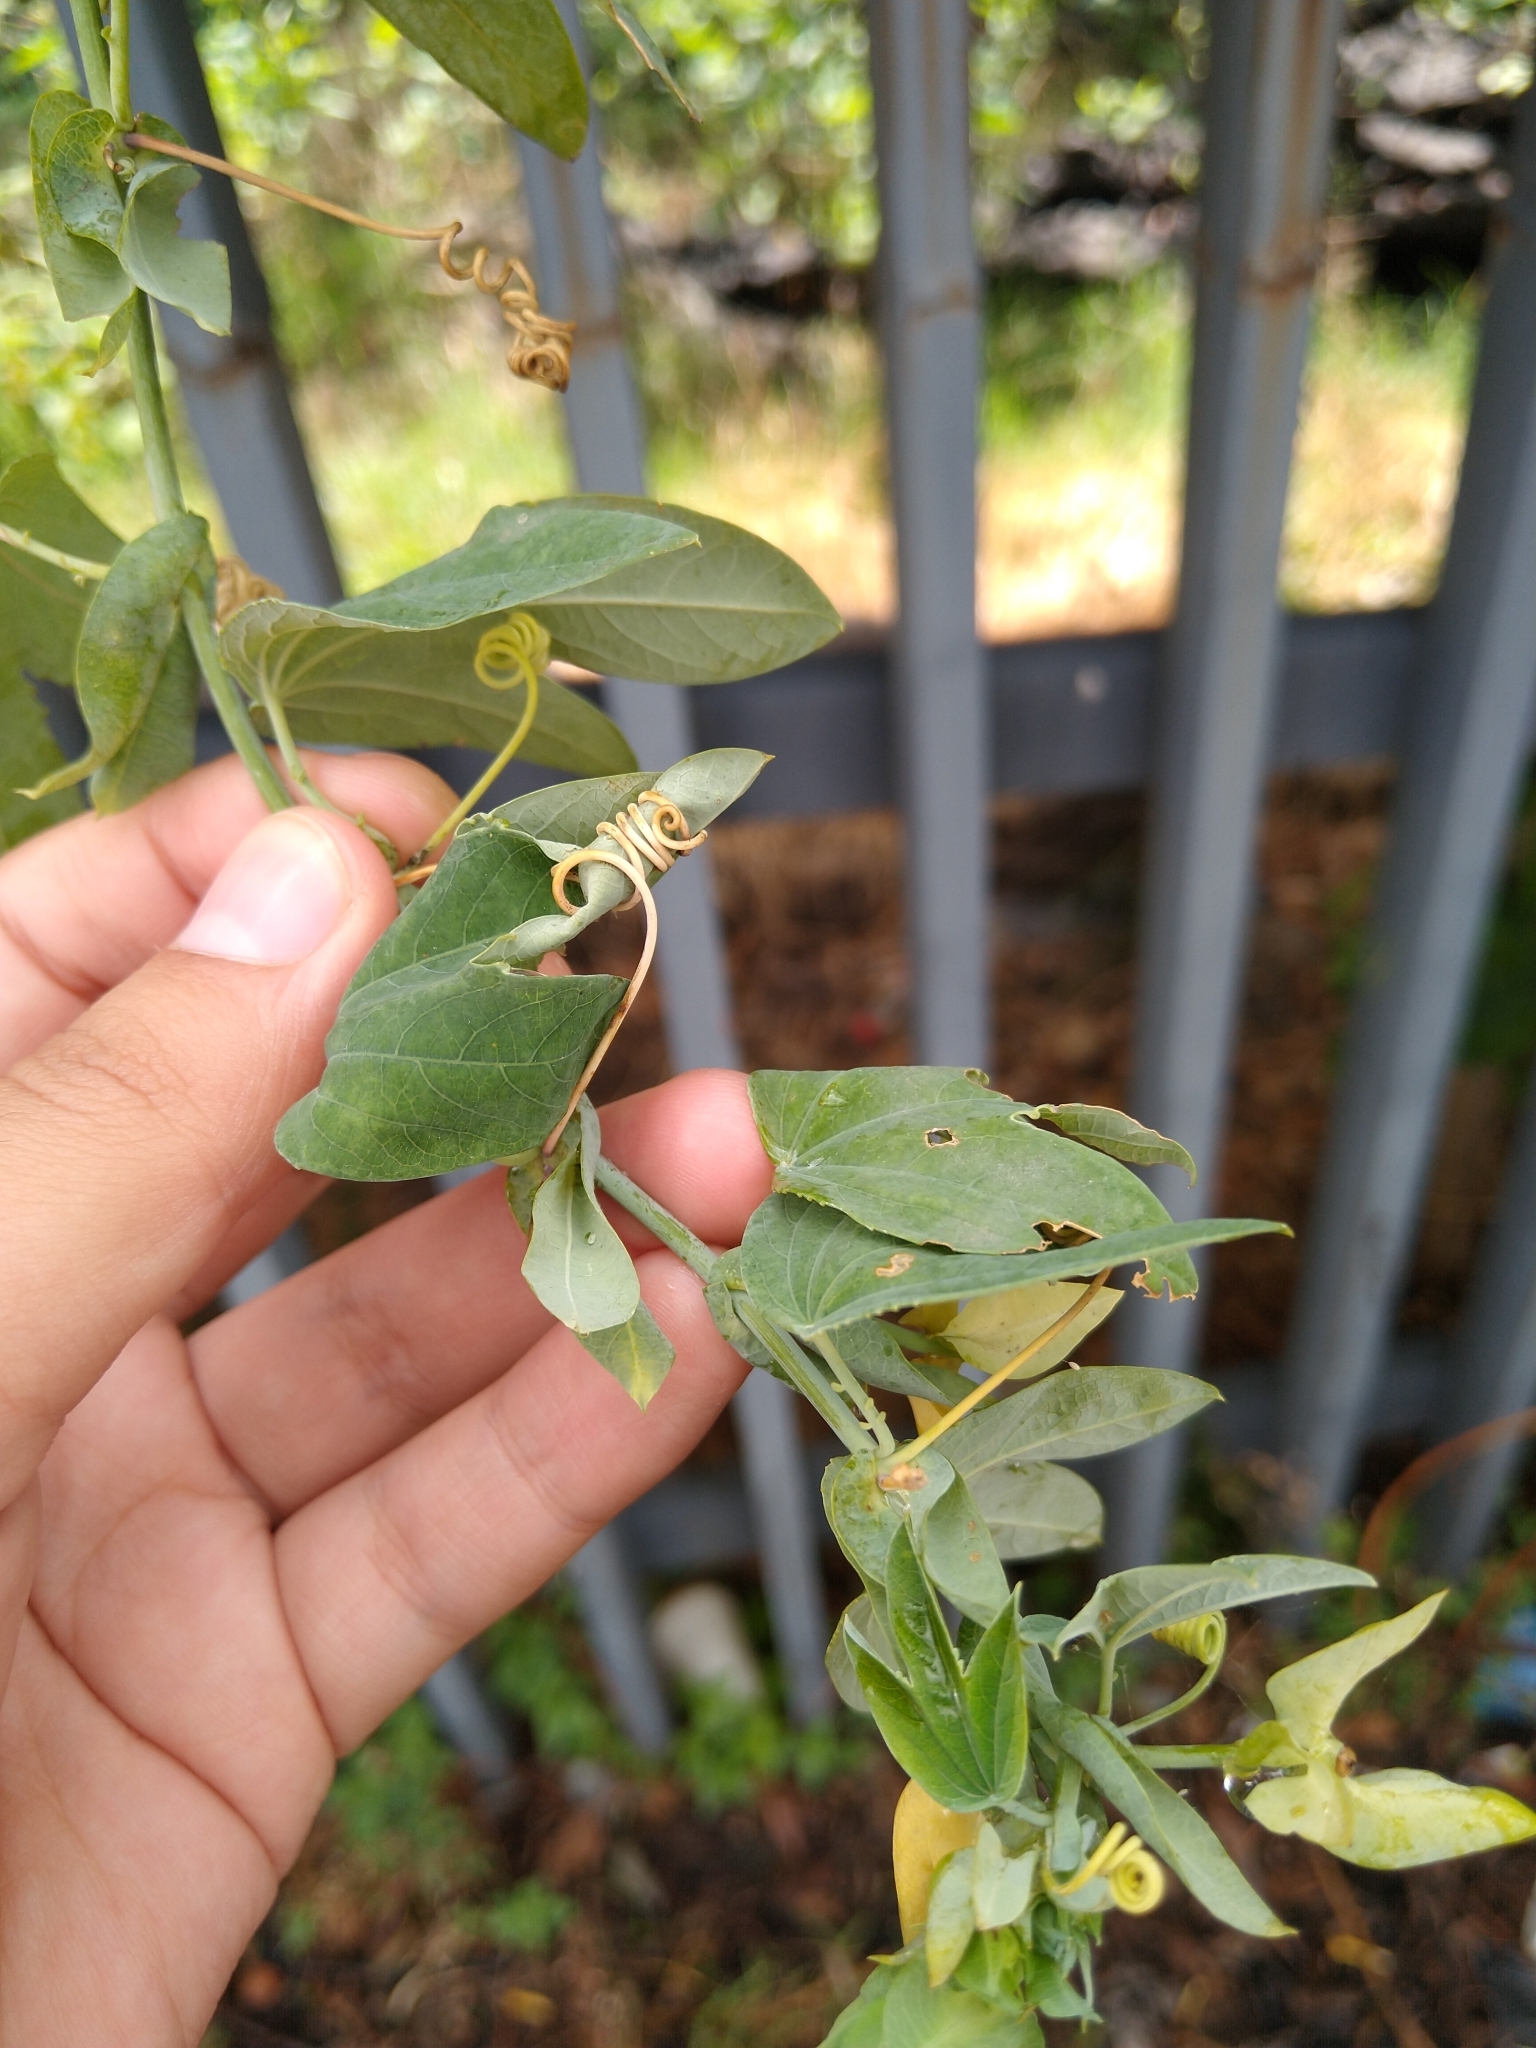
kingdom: Plantae
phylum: Tracheophyta
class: Magnoliopsida
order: Malpighiales
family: Passifloraceae
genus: Passiflora
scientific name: Passiflora subpeltata
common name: White passionflower
